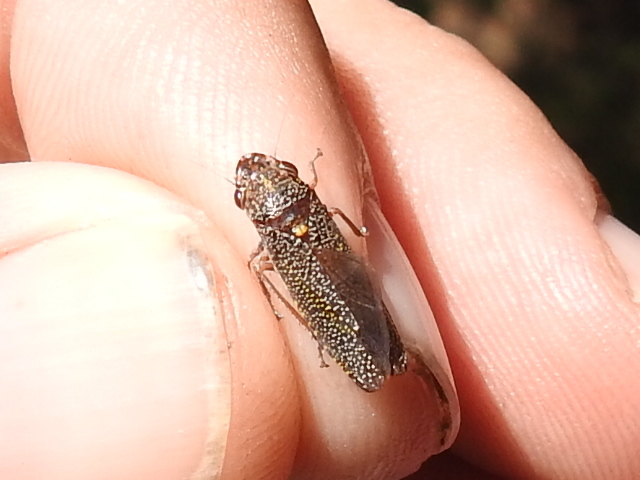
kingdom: Animalia
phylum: Arthropoda
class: Insecta
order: Hemiptera
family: Cicadellidae
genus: Paraulacizes
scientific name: Paraulacizes irrorata
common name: Speckled sharpshooter
